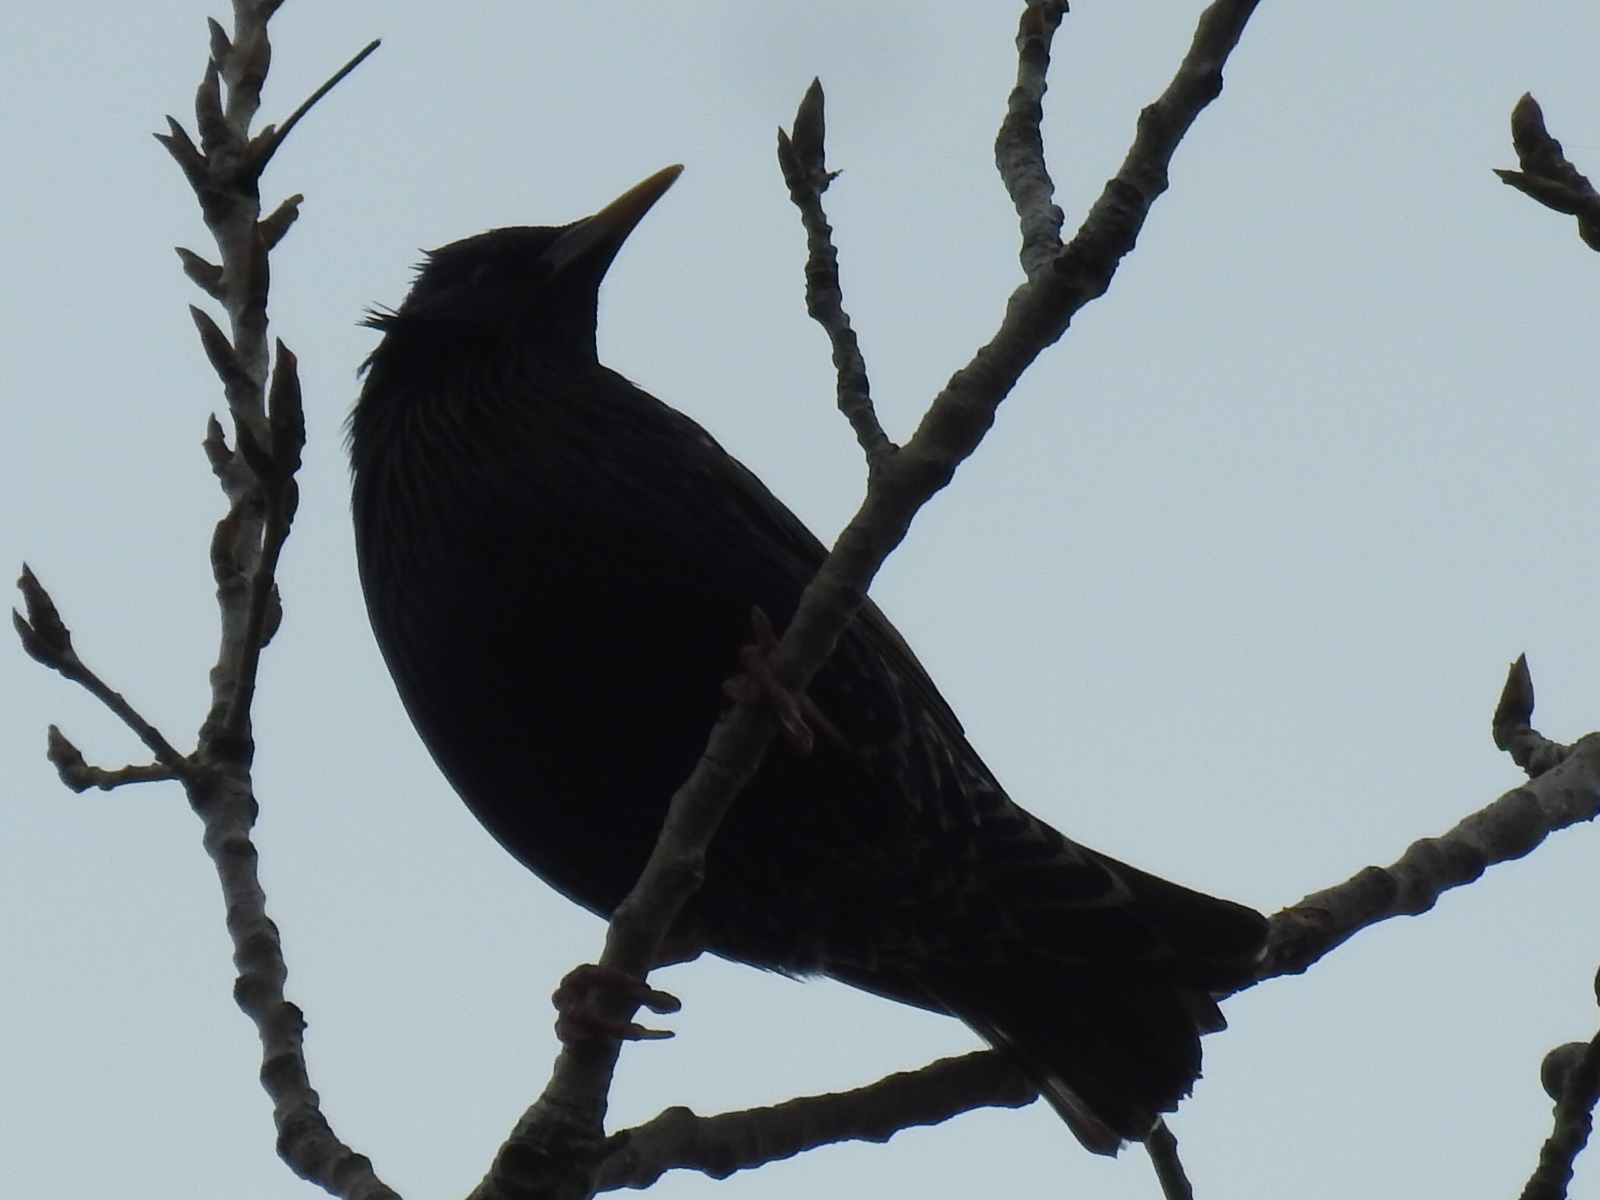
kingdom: Animalia
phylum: Chordata
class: Aves
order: Passeriformes
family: Sturnidae
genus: Sturnus
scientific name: Sturnus vulgaris
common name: Common starling
